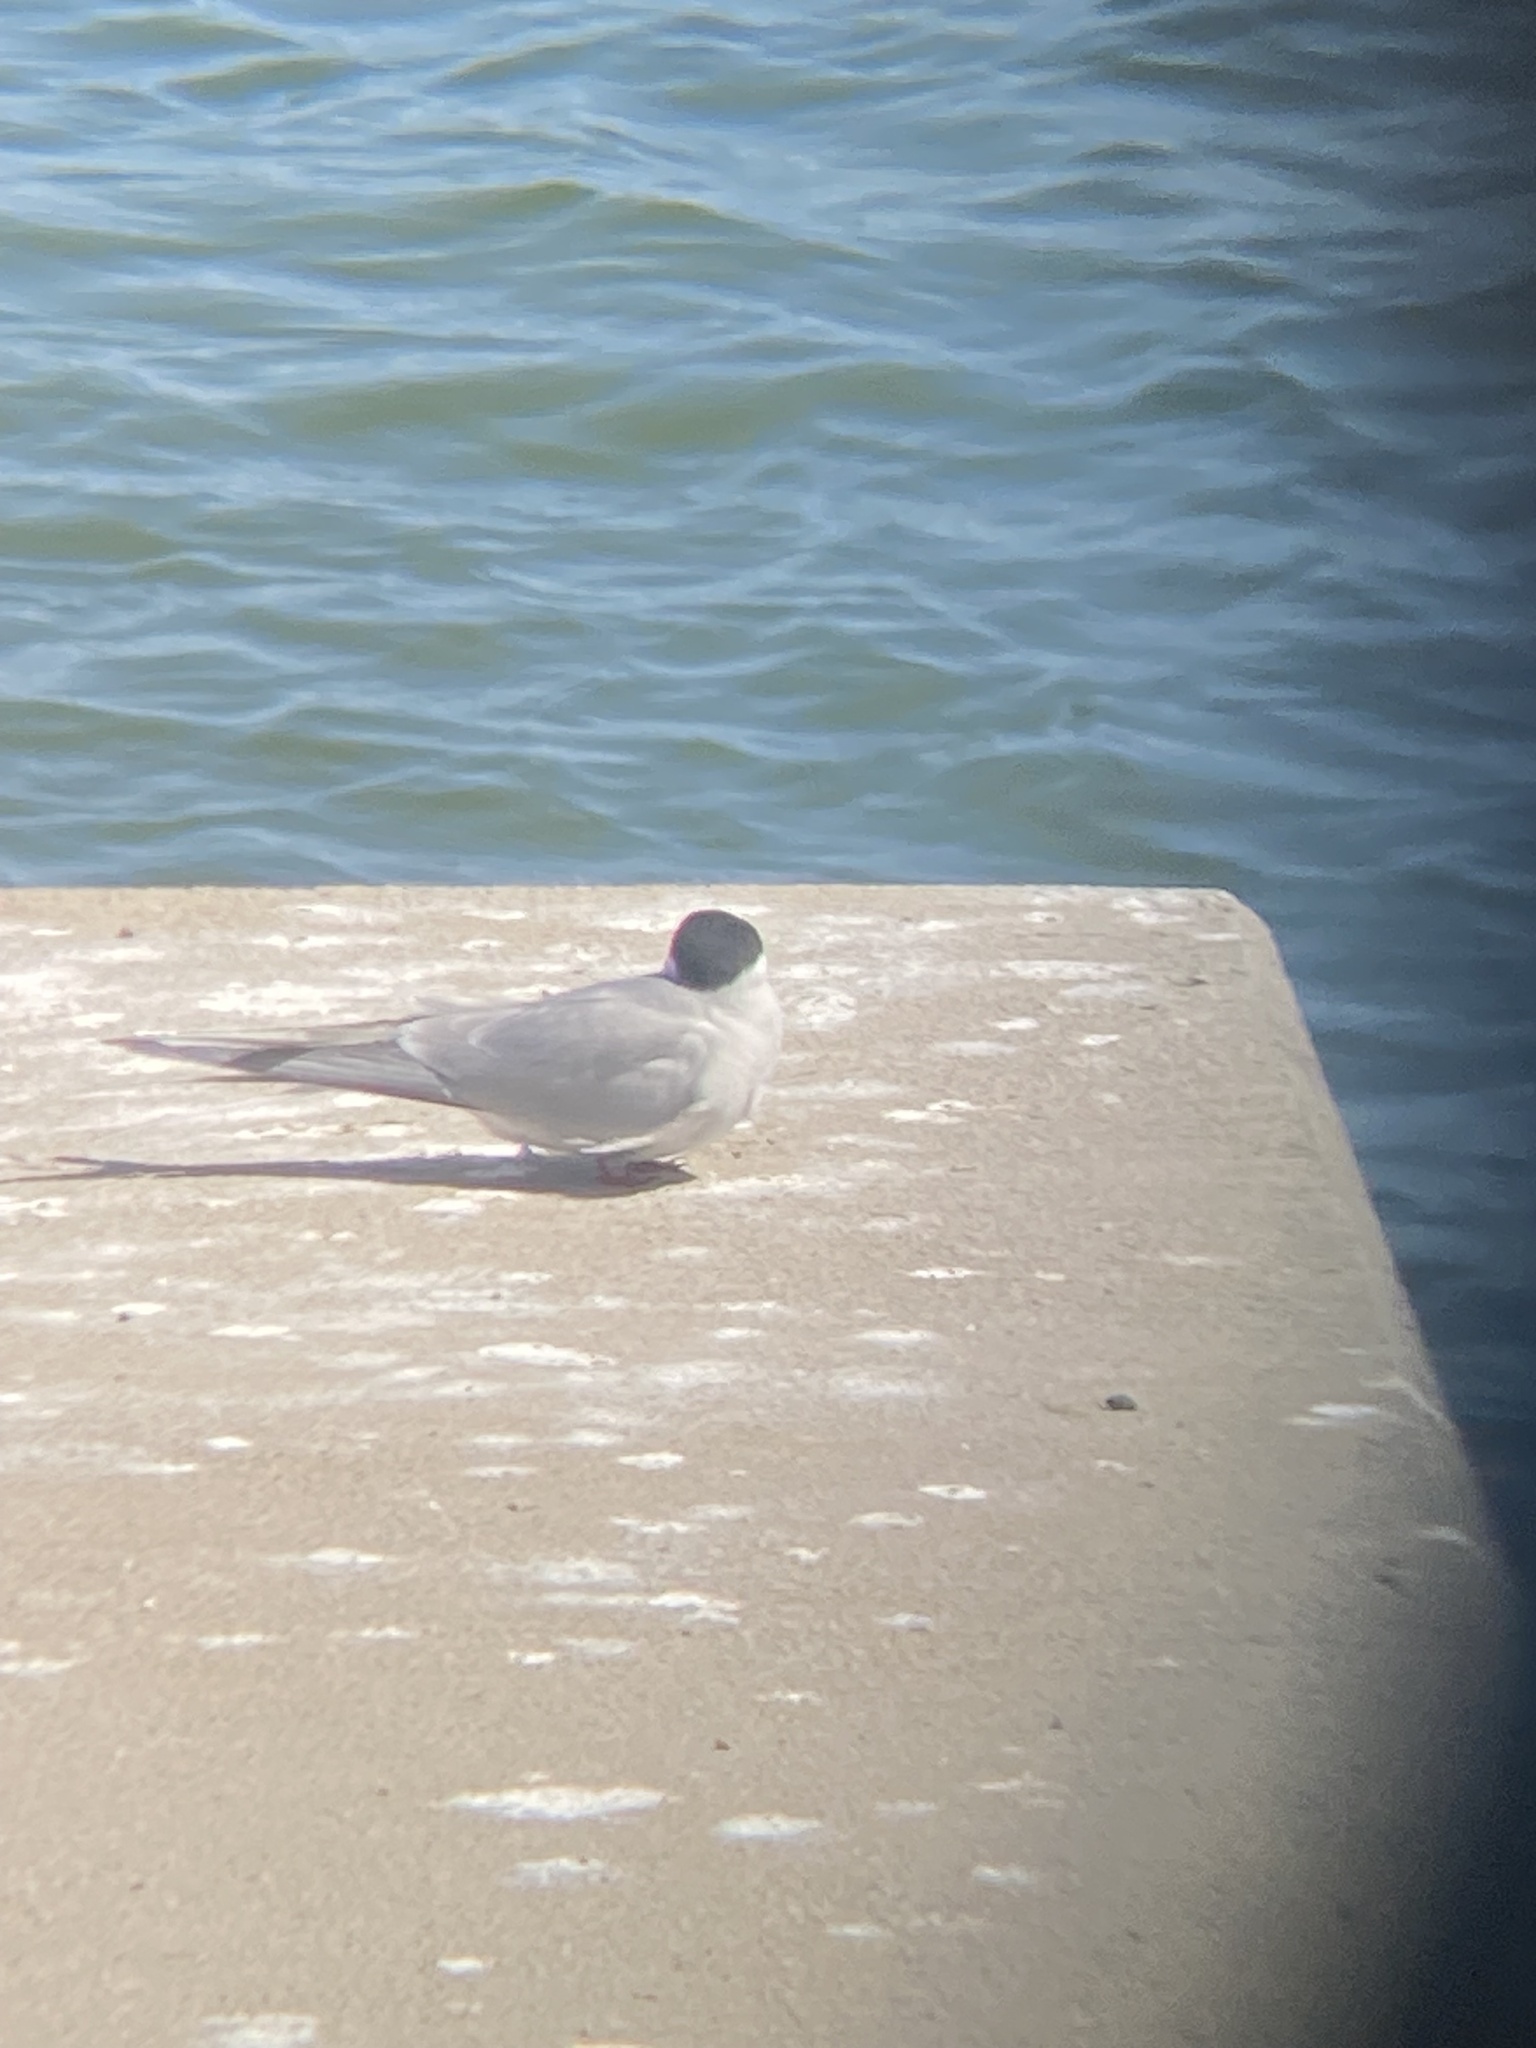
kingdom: Animalia
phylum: Chordata
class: Aves
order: Charadriiformes
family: Laridae
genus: Sterna
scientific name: Sterna paradisaea
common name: Arctic tern
